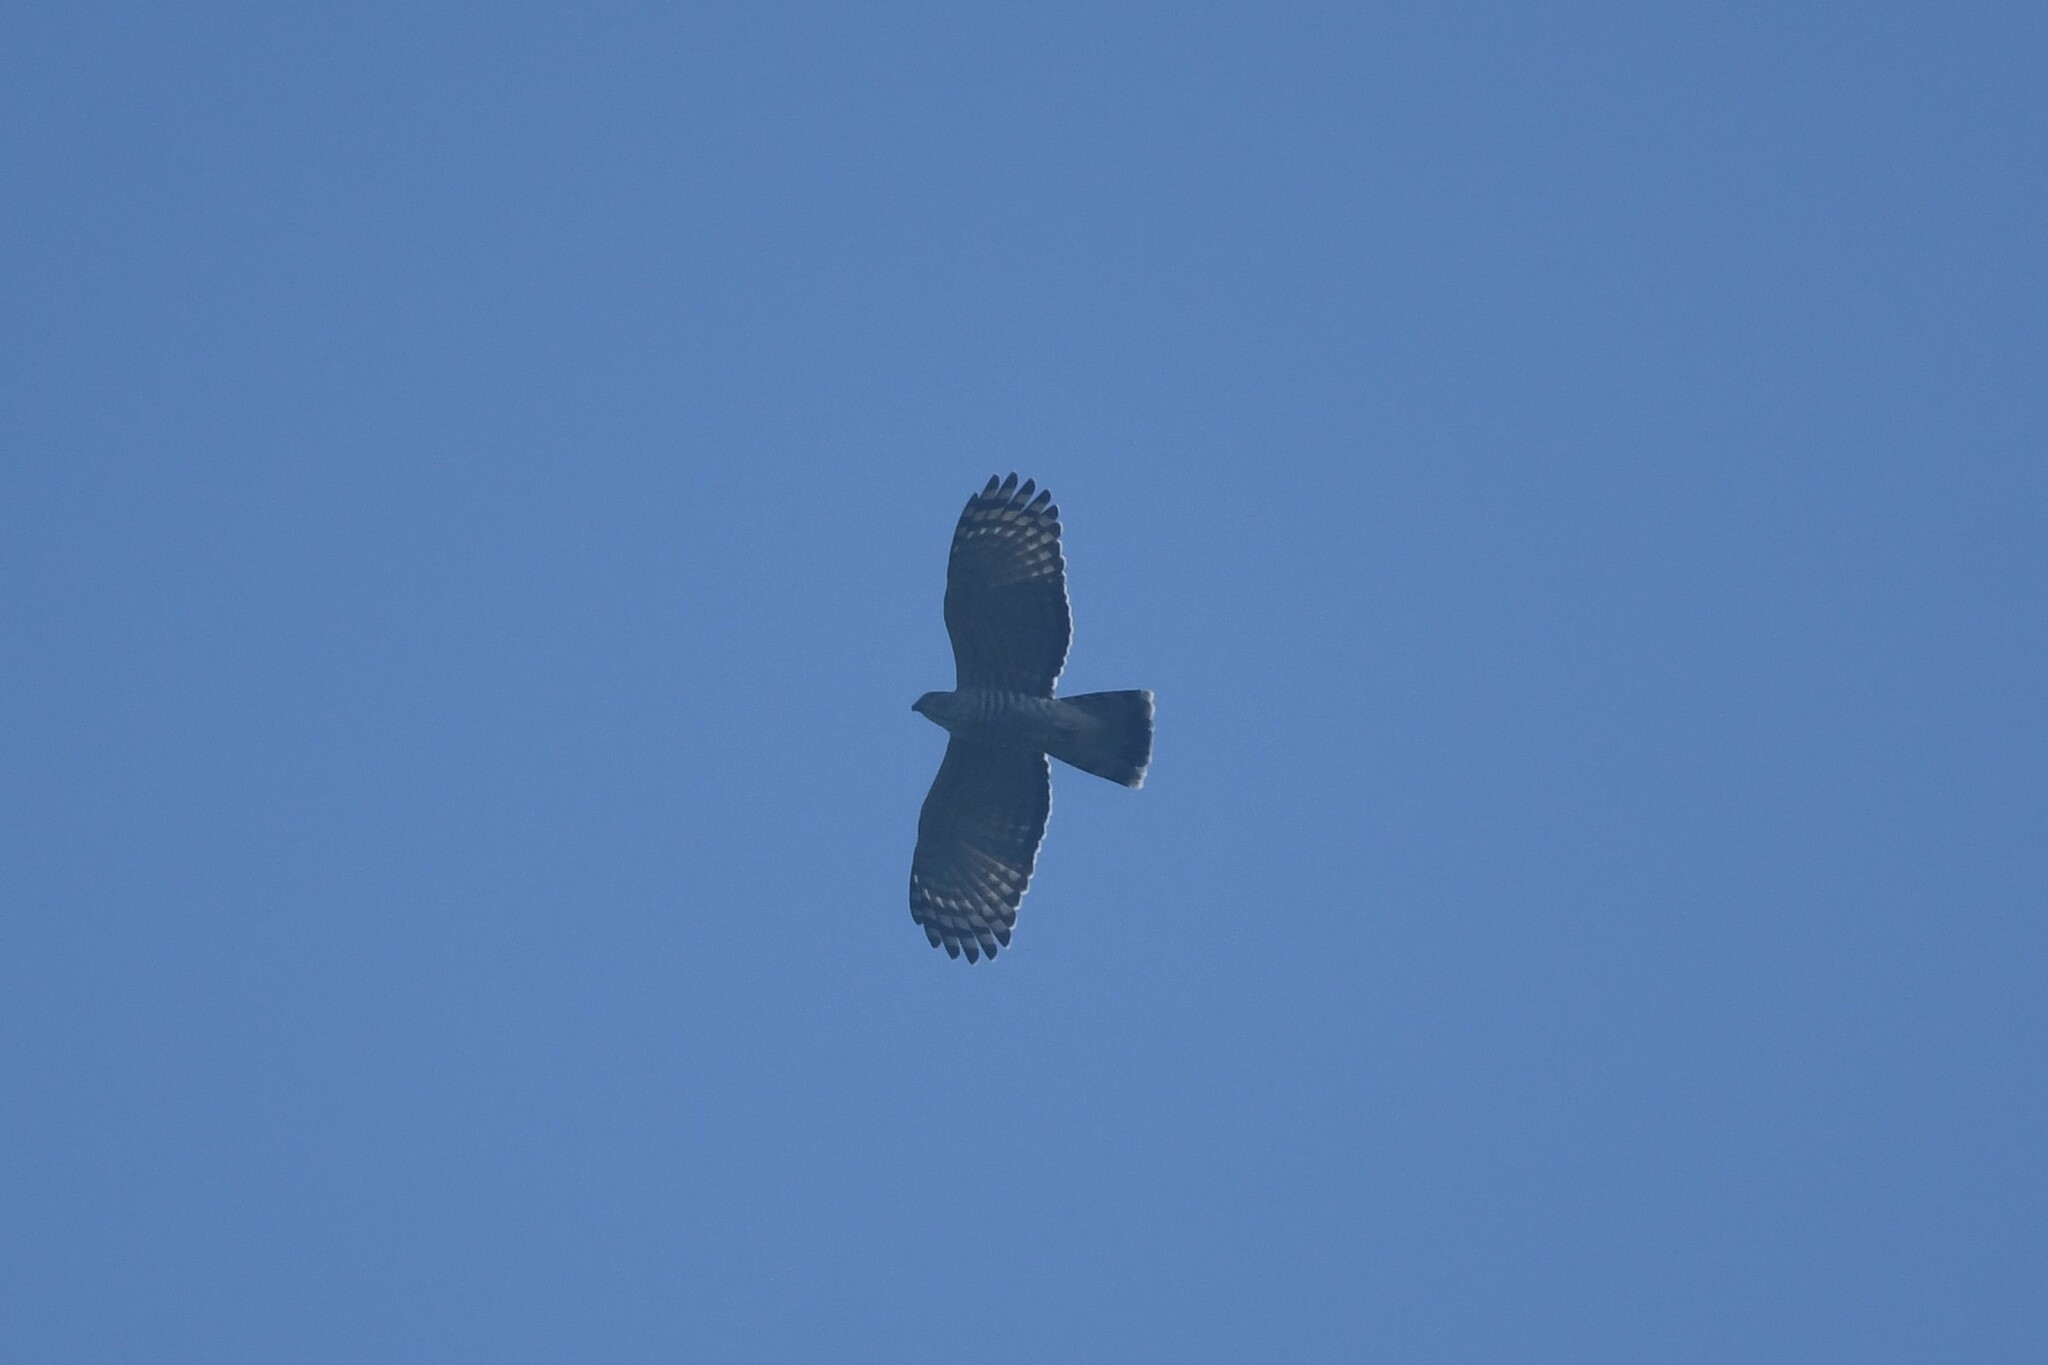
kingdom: Animalia
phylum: Chordata
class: Aves
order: Accipitriformes
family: Accipitridae
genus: Aviceda
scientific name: Aviceda jerdoni
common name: Jerdon's baza
